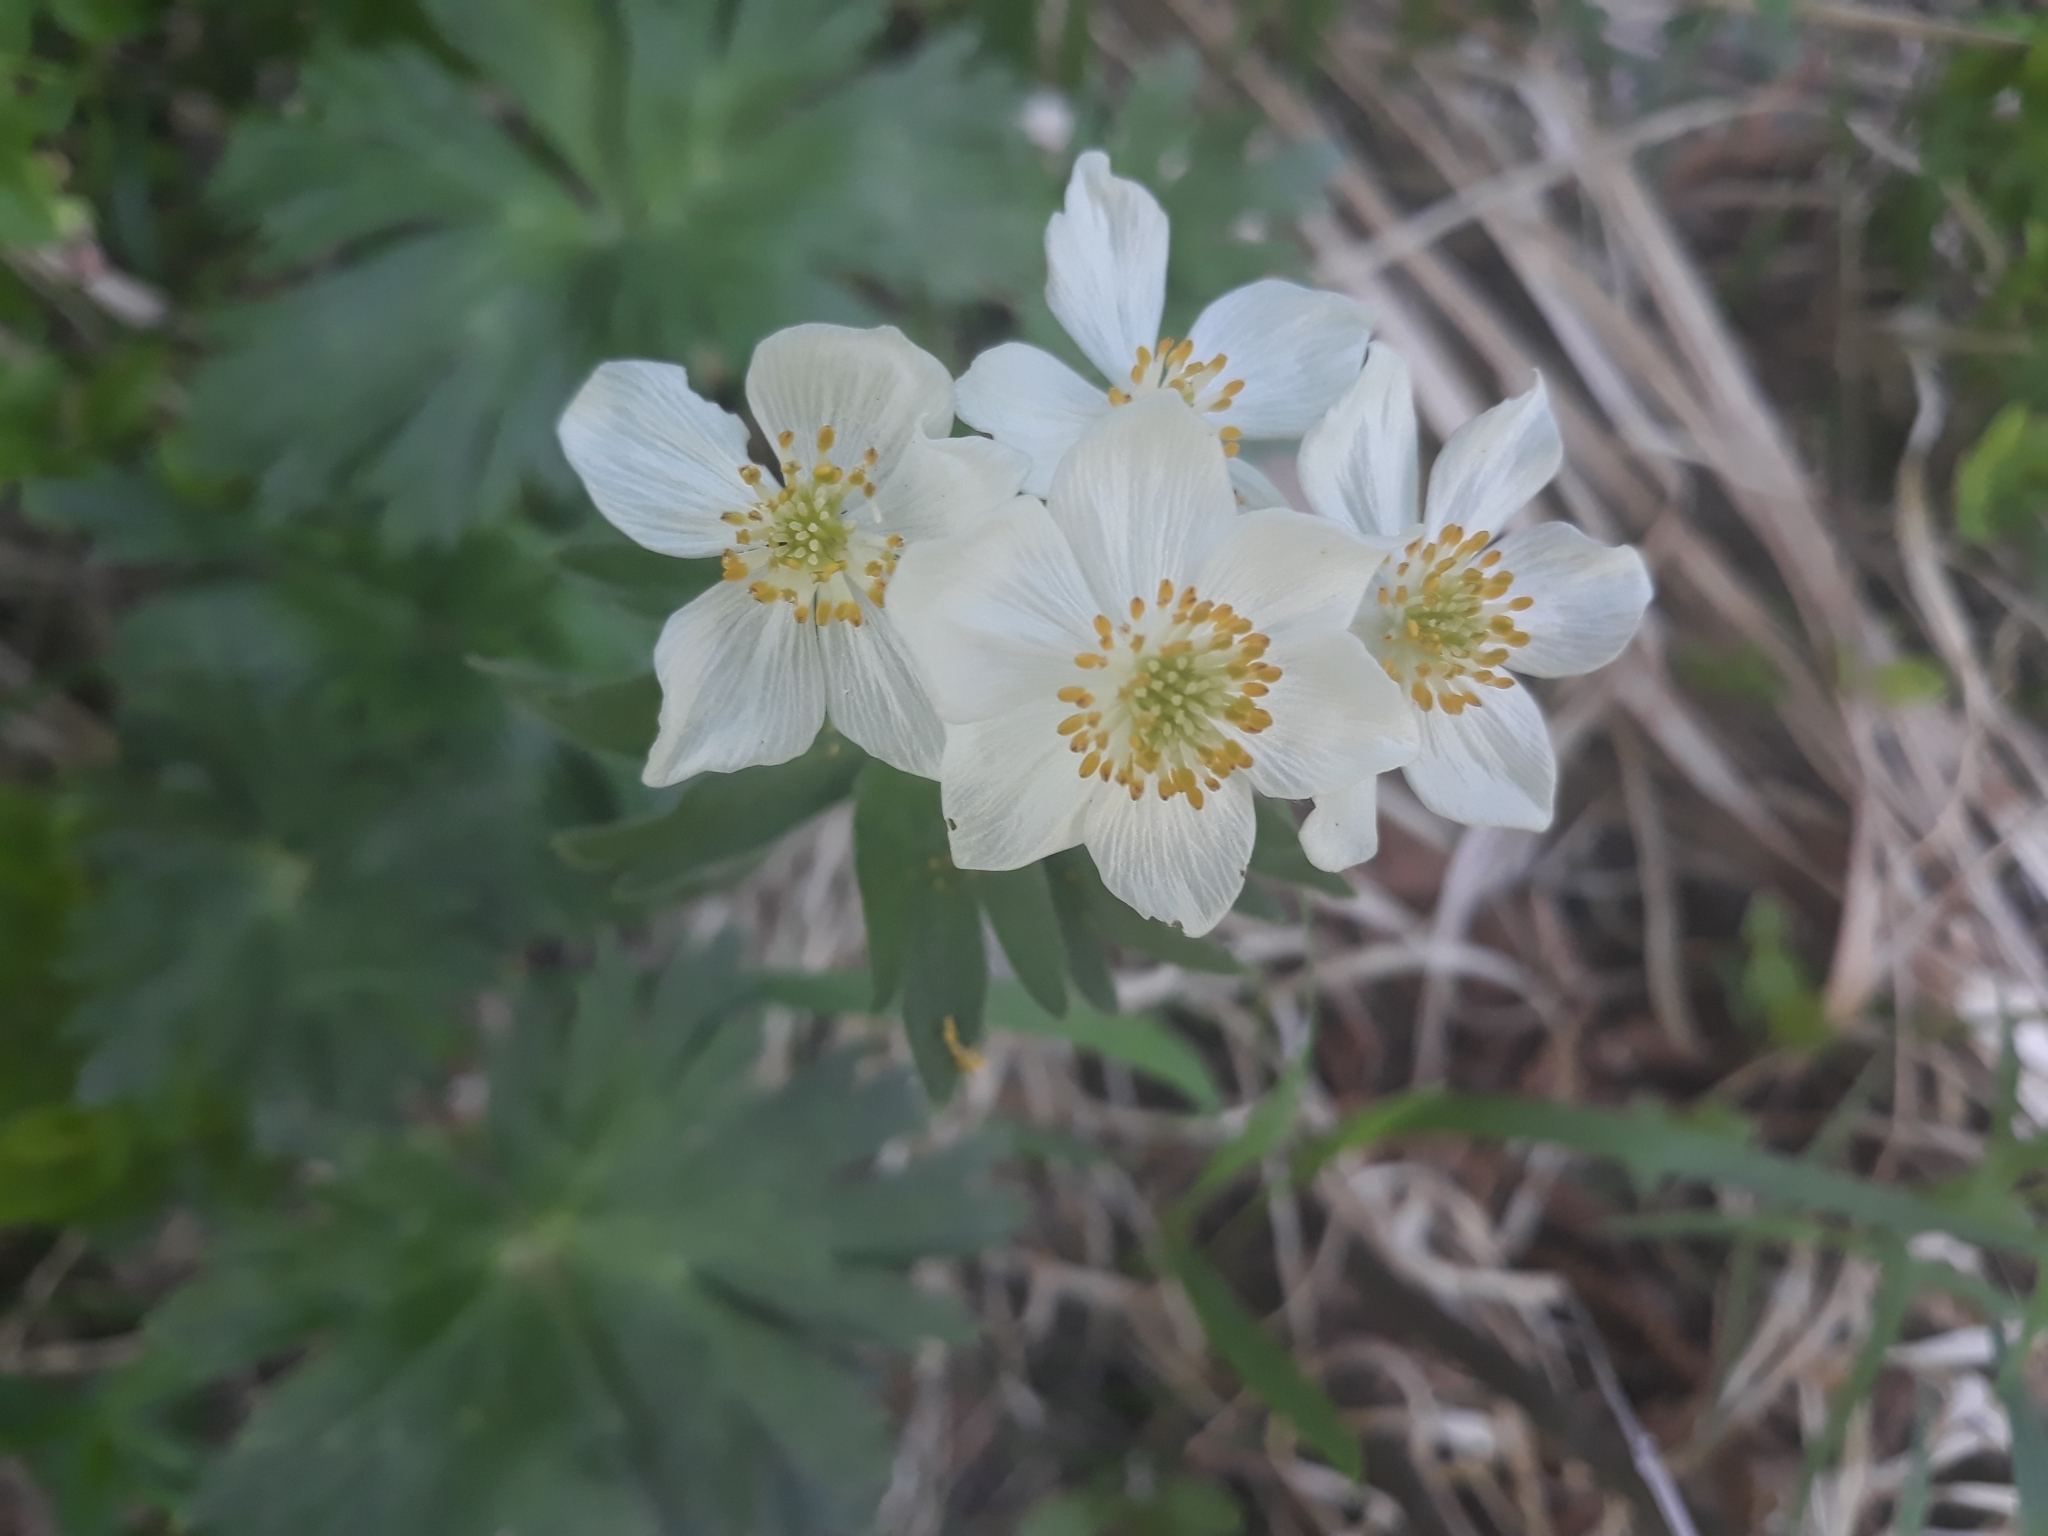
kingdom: Plantae
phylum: Tracheophyta
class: Magnoliopsida
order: Ranunculales
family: Ranunculaceae
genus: Anemonastrum
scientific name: Anemonastrum biarmiense
